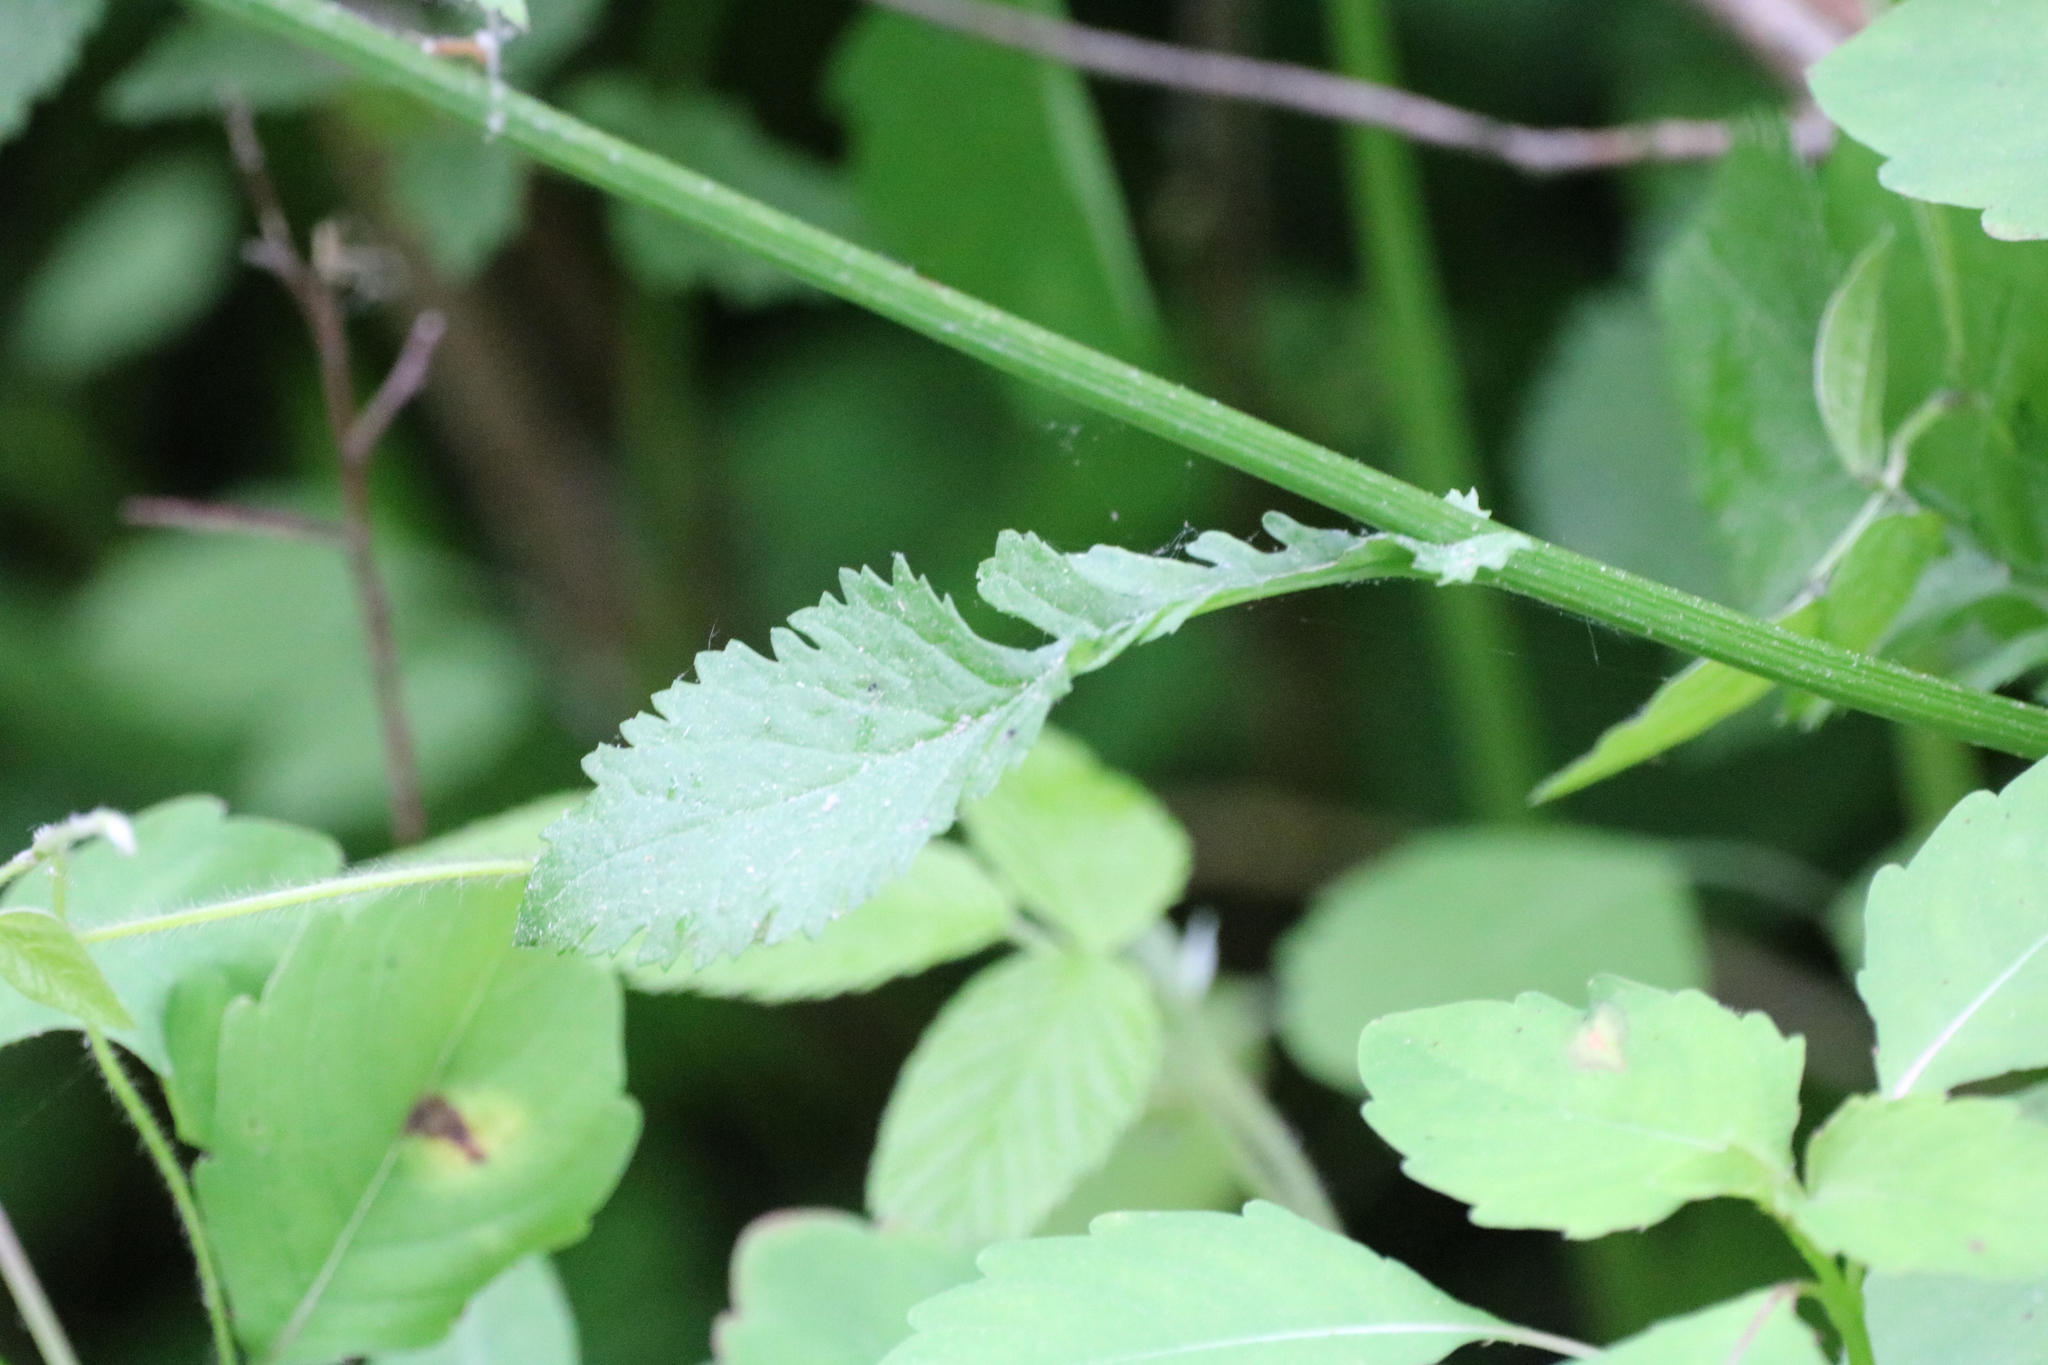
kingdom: Plantae
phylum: Tracheophyta
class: Magnoliopsida
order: Asterales
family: Asteraceae
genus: Packera
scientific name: Packera aurea
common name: Golden groundsel
